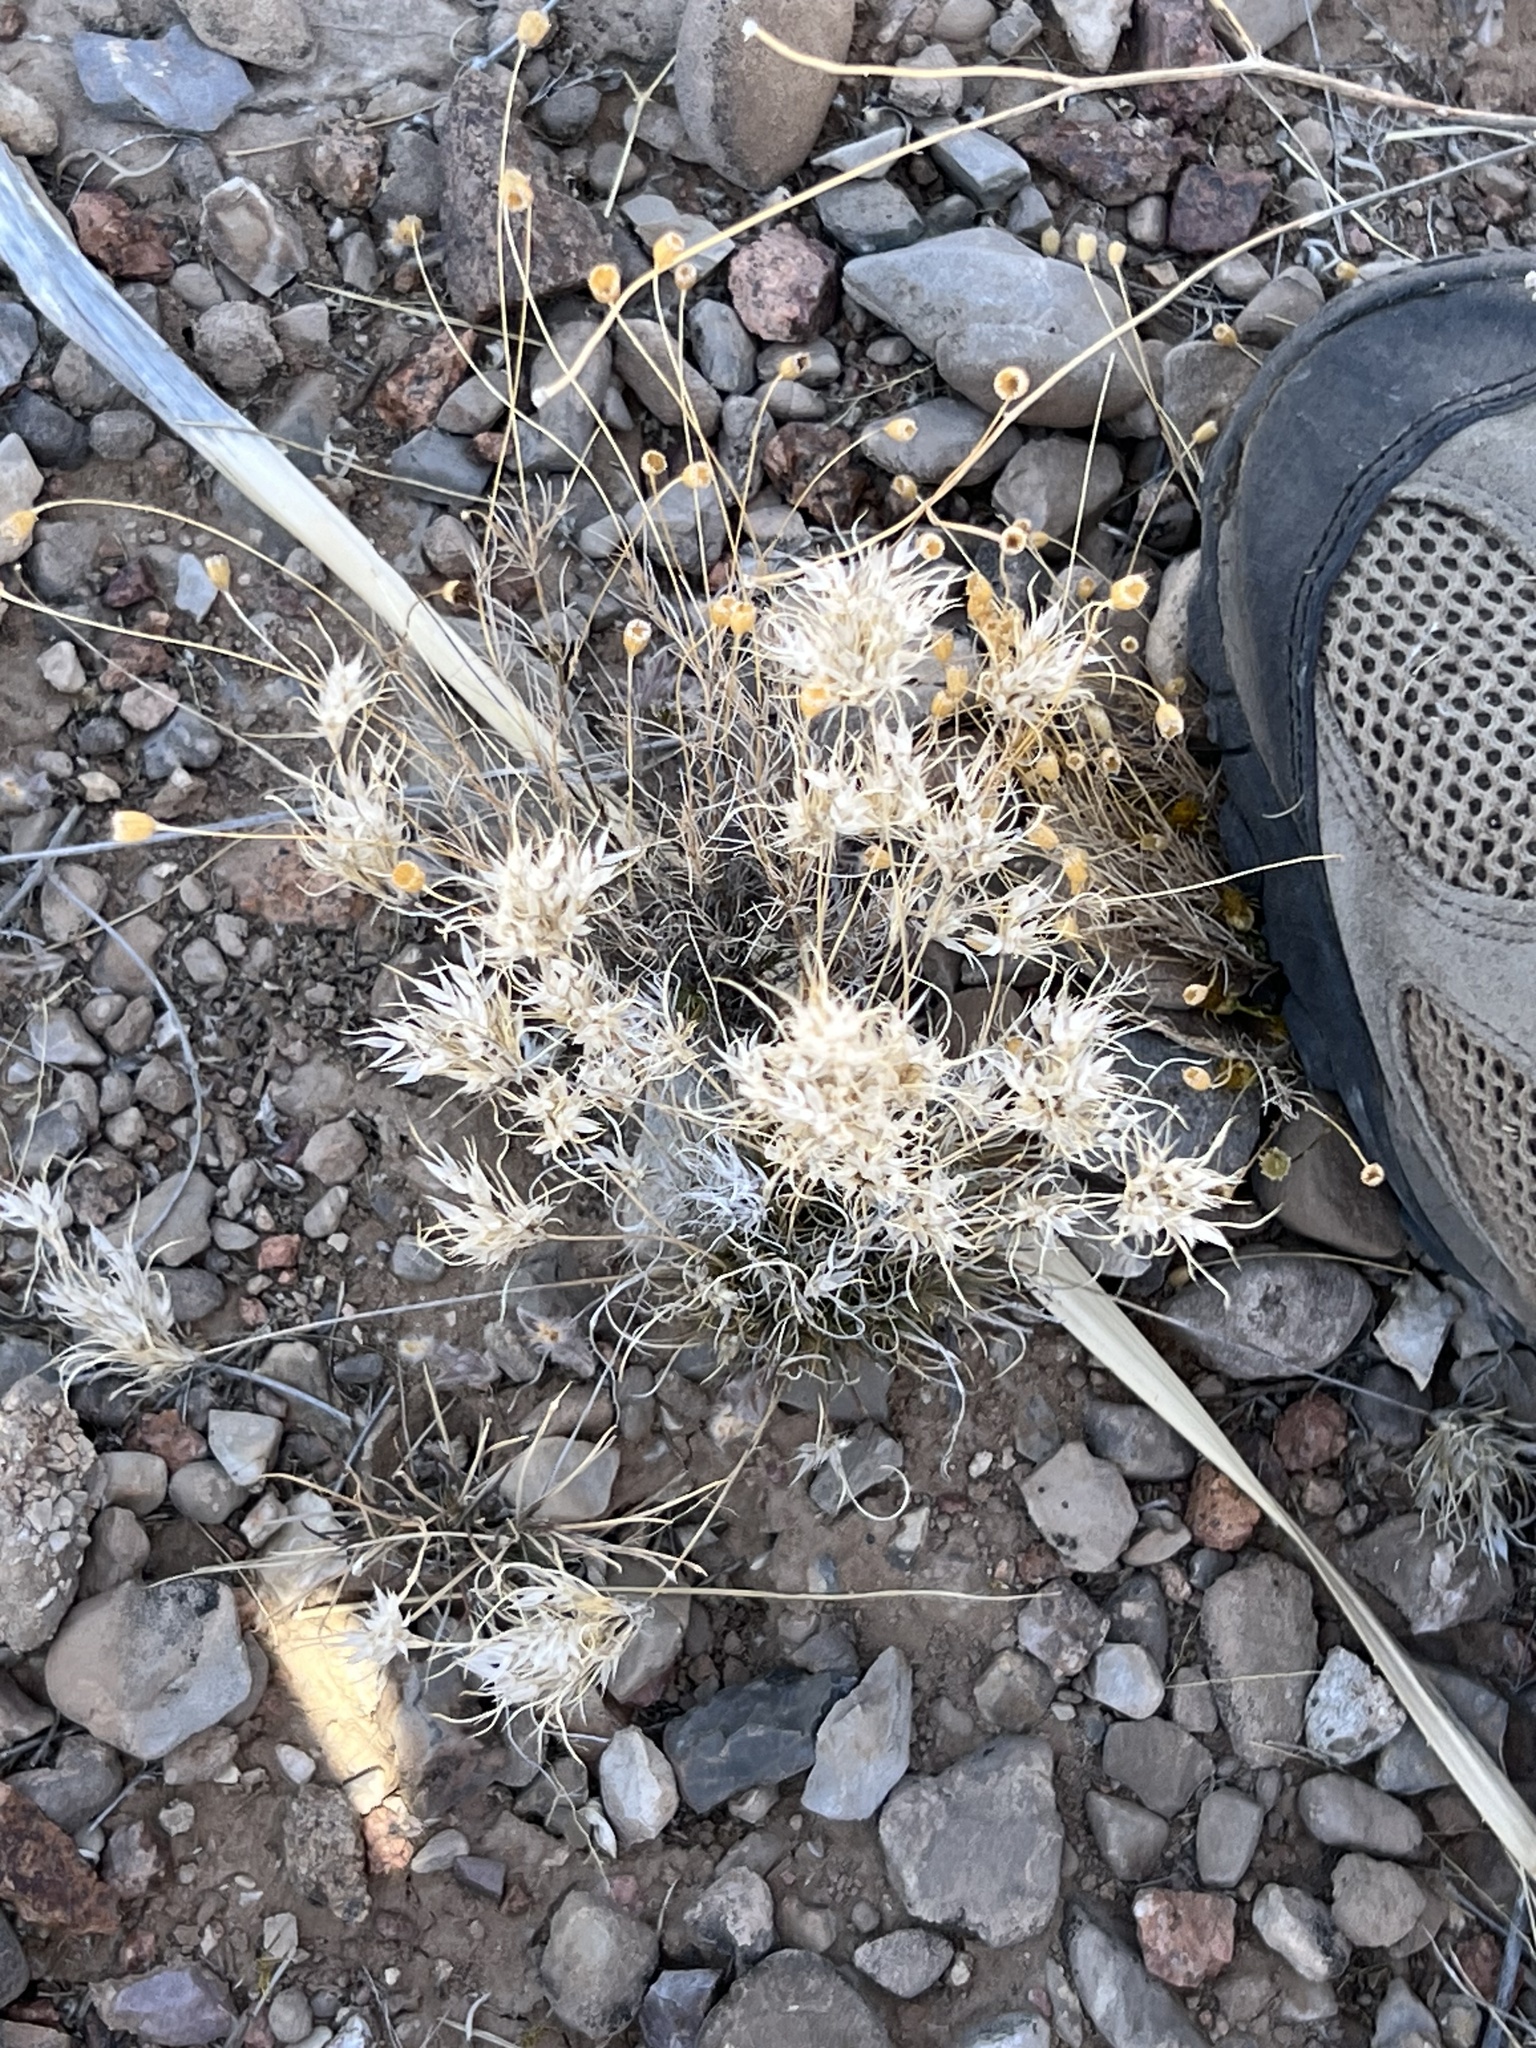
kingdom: Plantae
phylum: Tracheophyta
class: Liliopsida
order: Poales
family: Poaceae
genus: Dasyochloa
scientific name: Dasyochloa pulchella
